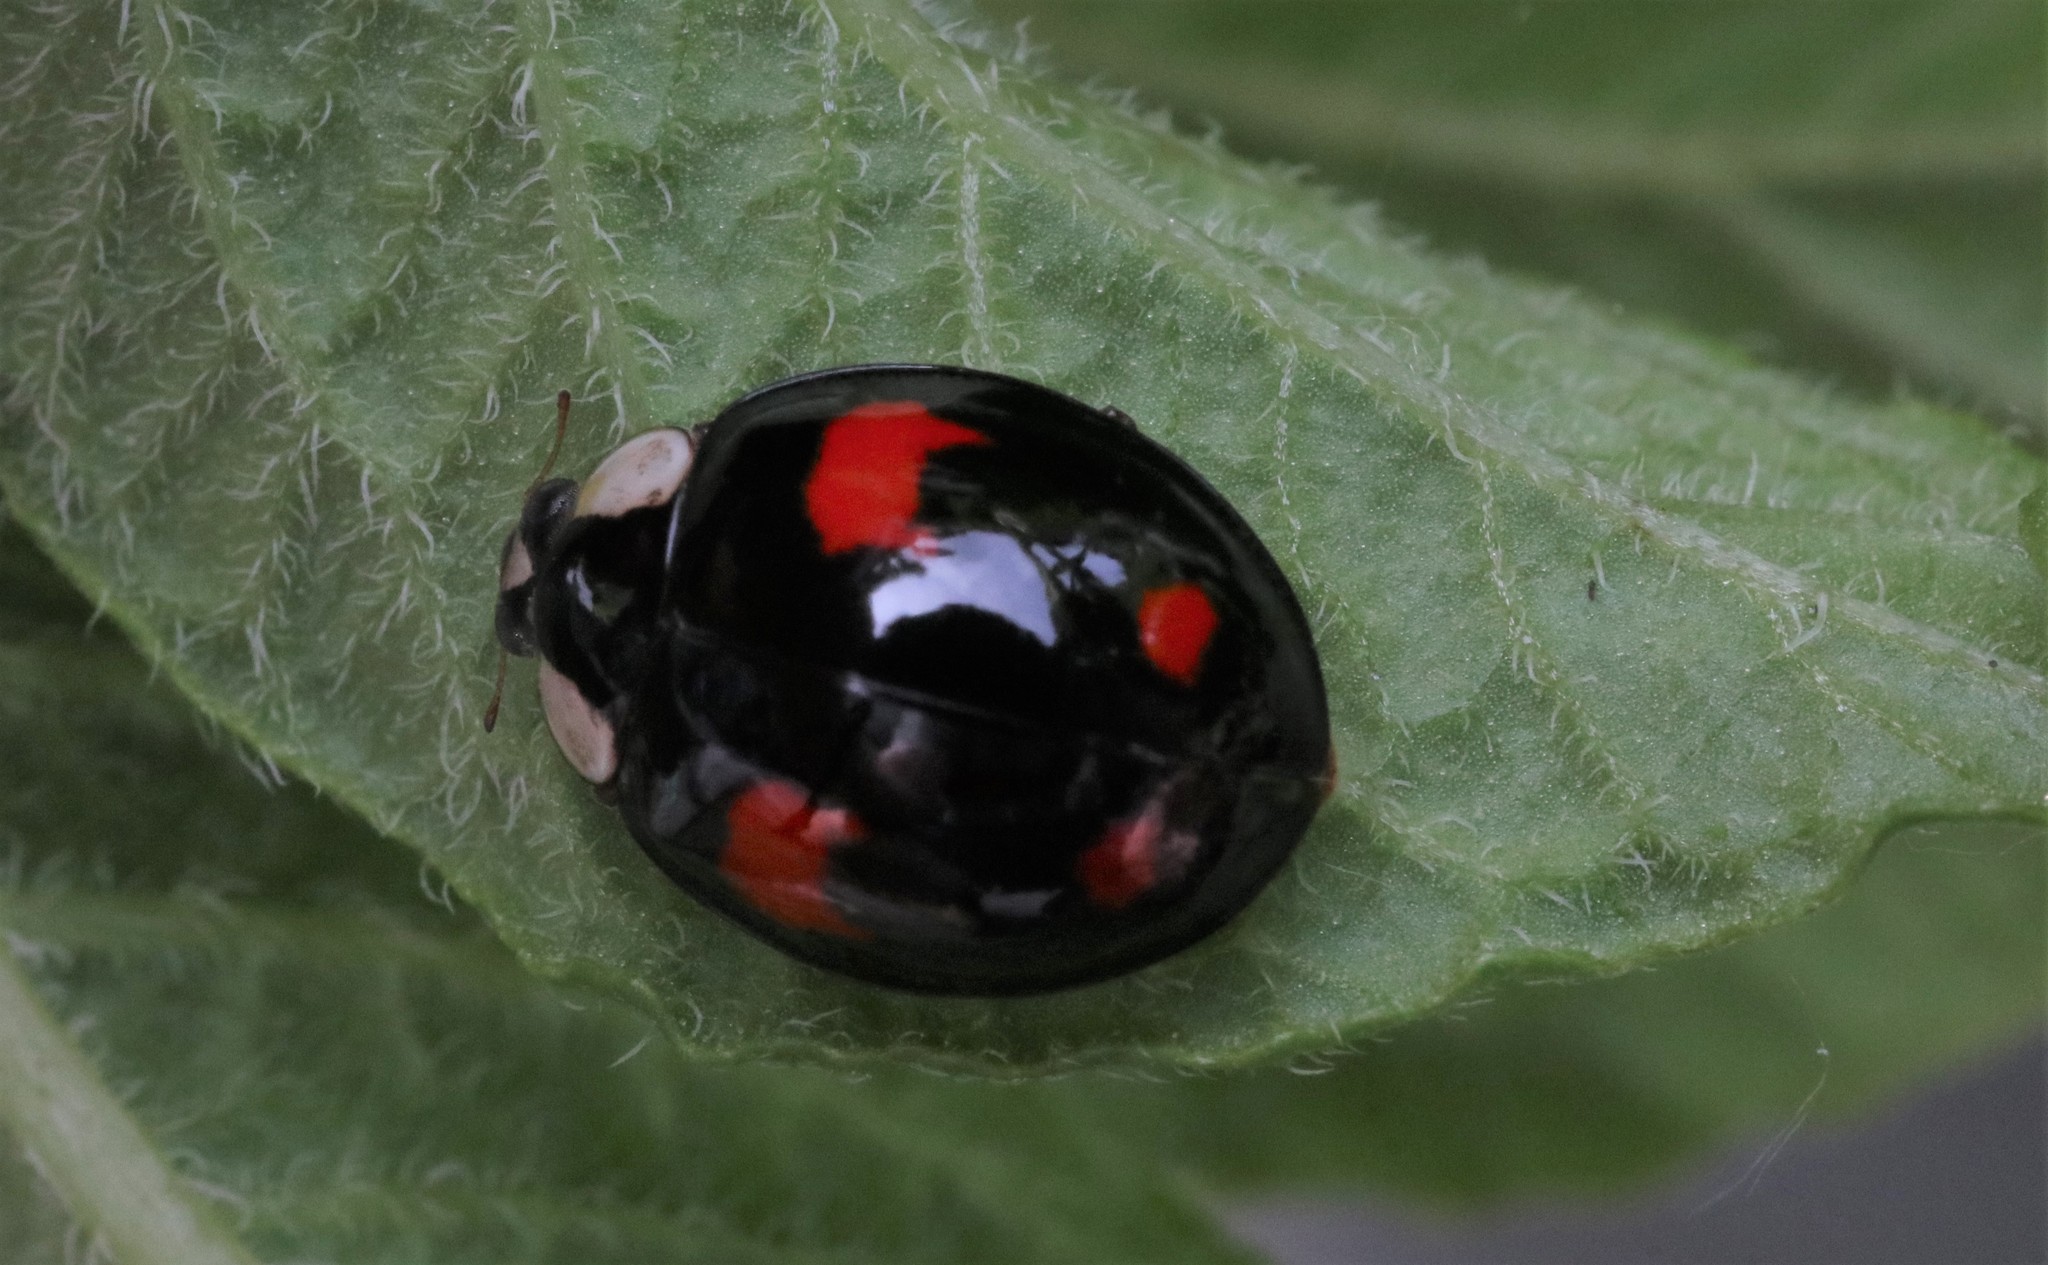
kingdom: Animalia
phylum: Arthropoda
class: Insecta
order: Coleoptera
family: Coccinellidae
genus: Harmonia
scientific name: Harmonia axyridis
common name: Harlequin ladybird
